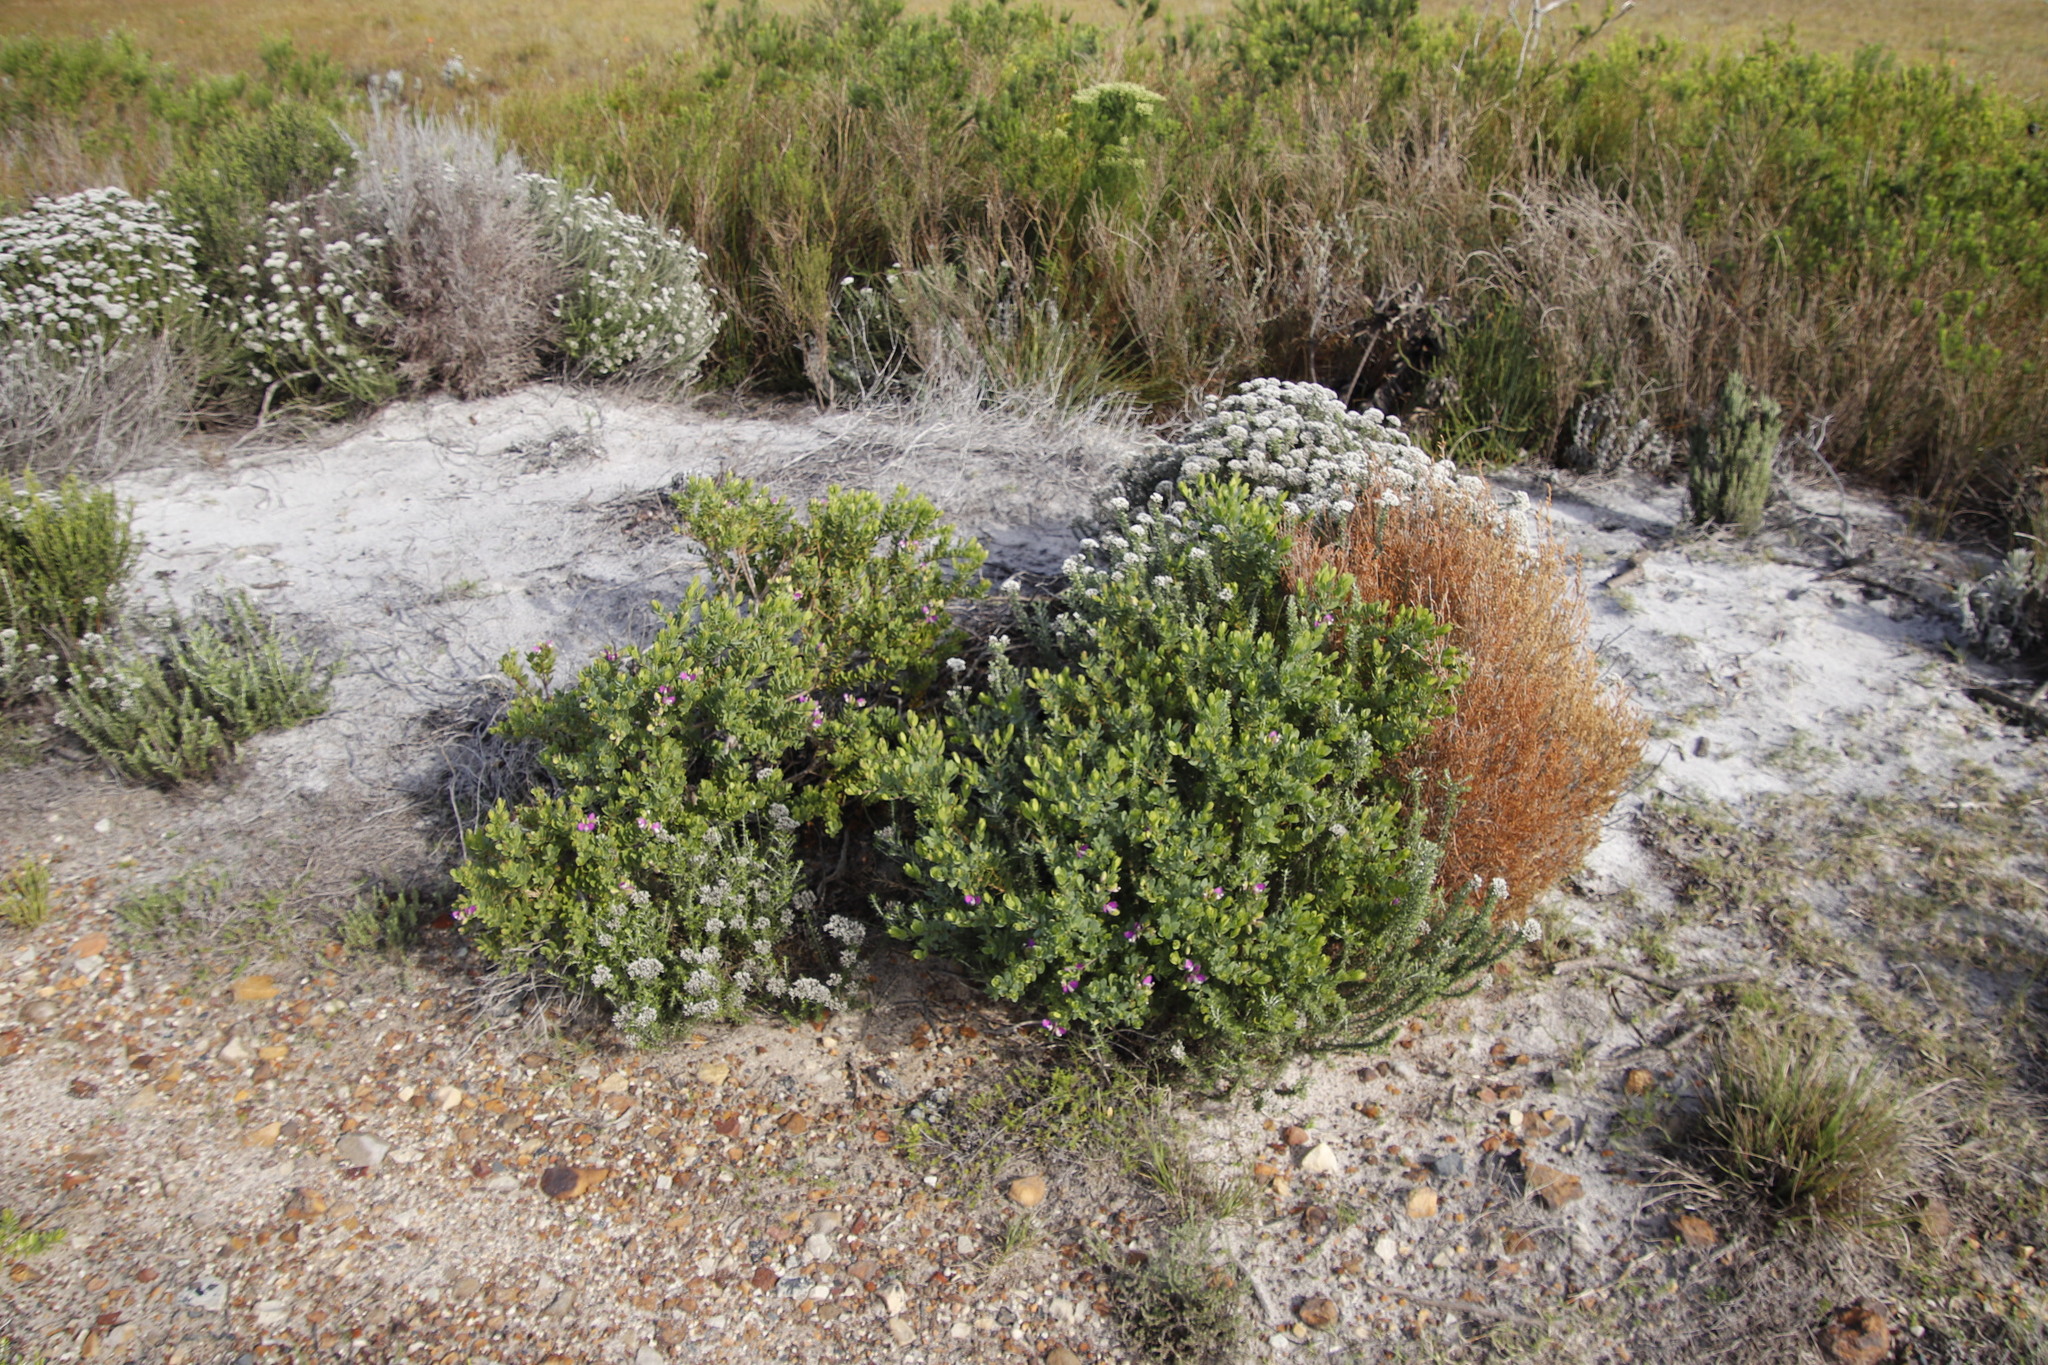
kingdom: Plantae
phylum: Tracheophyta
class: Magnoliopsida
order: Fabales
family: Polygalaceae
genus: Polygala
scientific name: Polygala myrtifolia
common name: Myrtle-leaf milkwort
